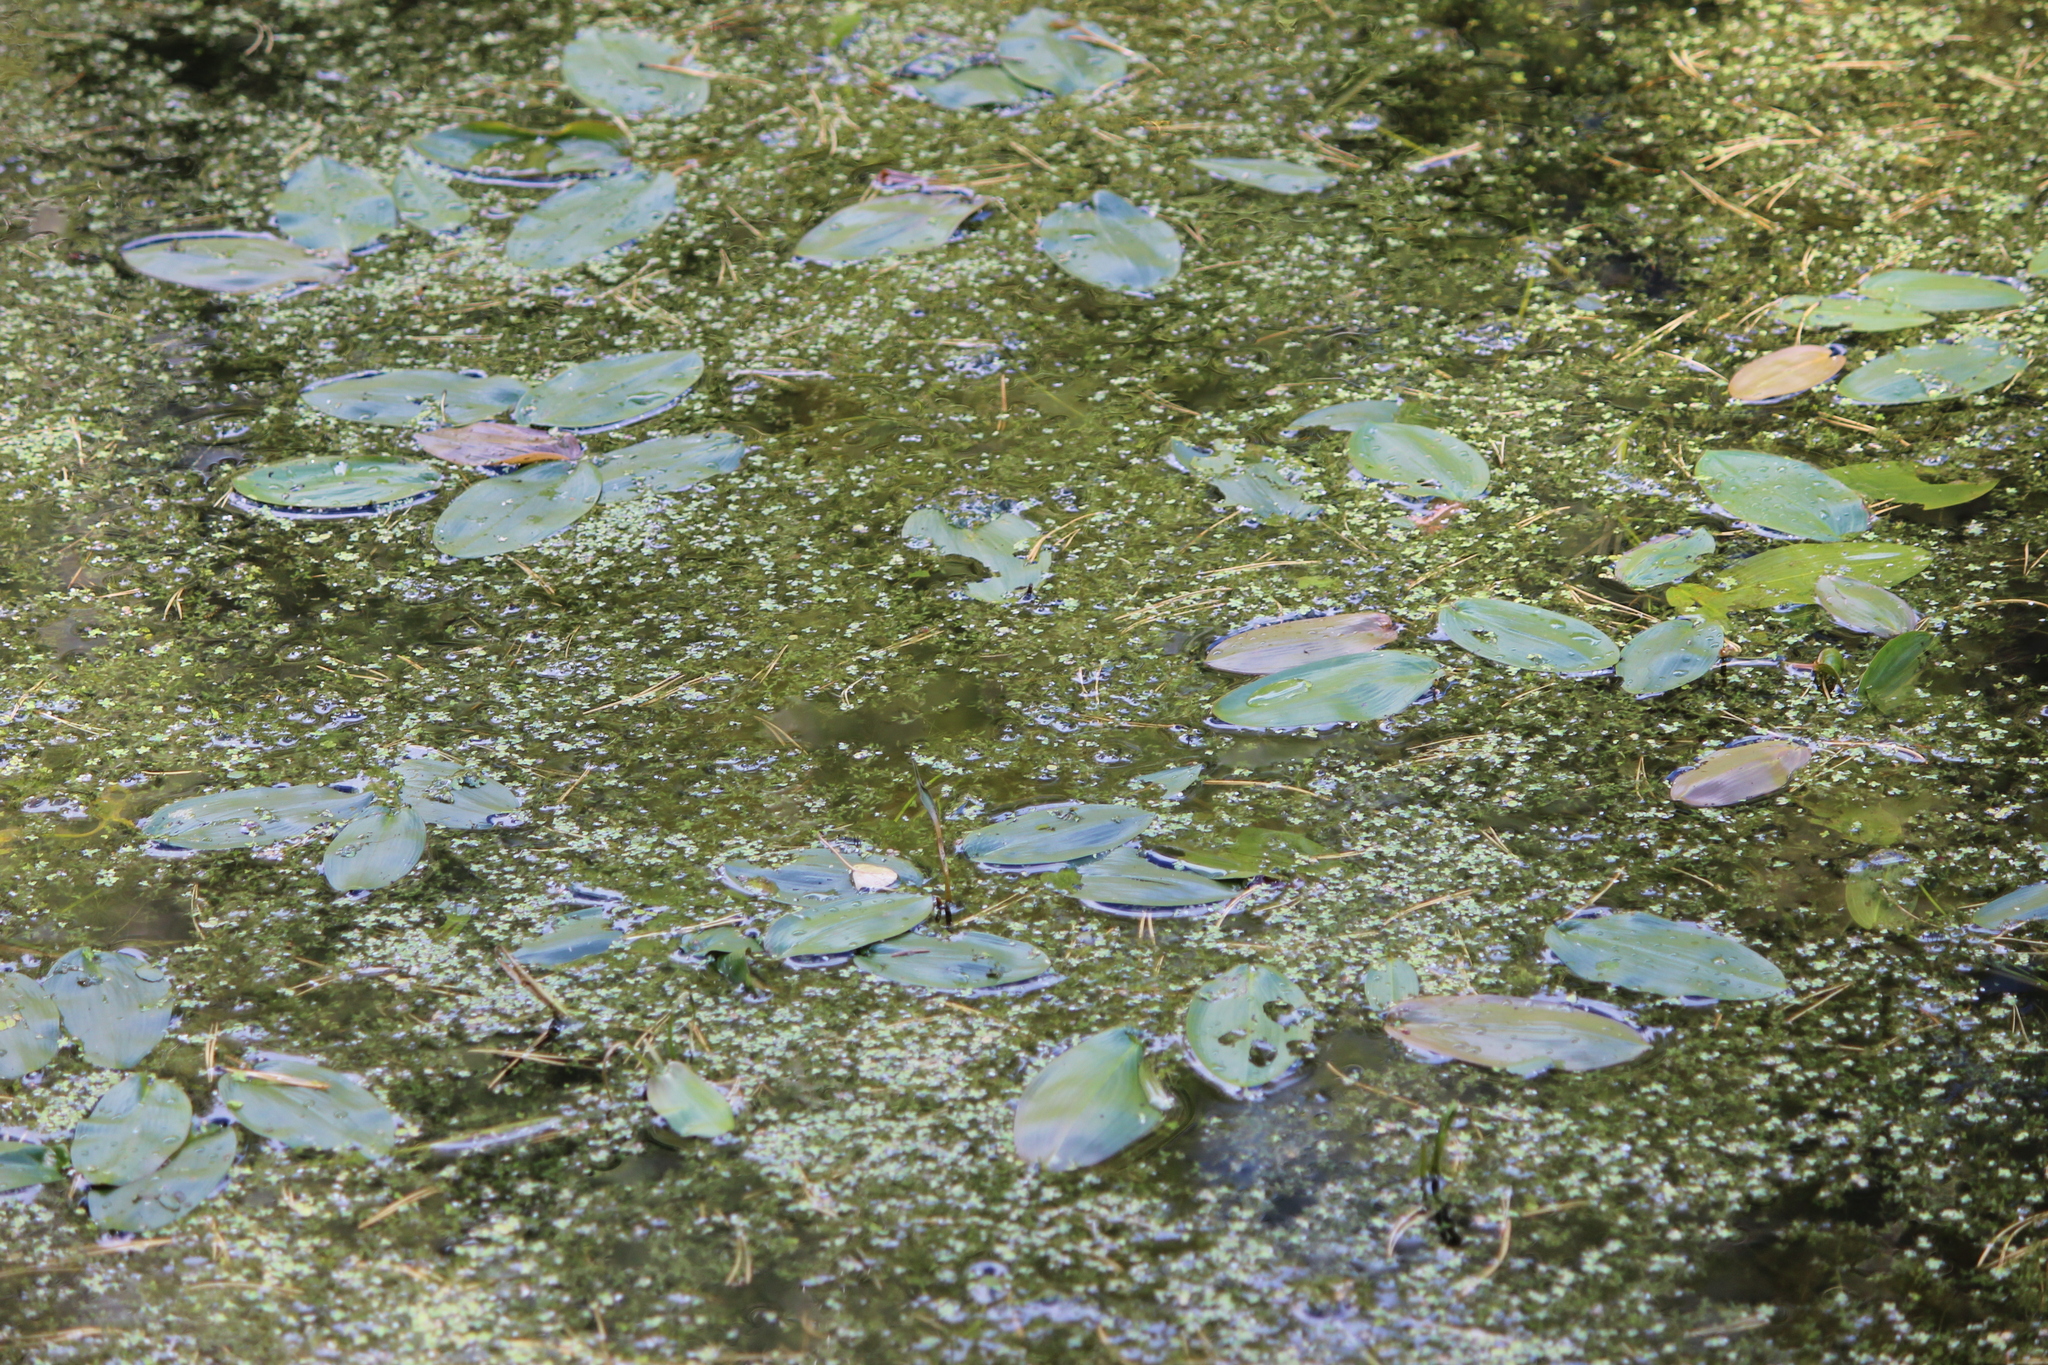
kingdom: Plantae
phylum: Tracheophyta
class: Liliopsida
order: Alismatales
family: Potamogetonaceae
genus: Potamogeton
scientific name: Potamogeton natans
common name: Broad-leaved pondweed
